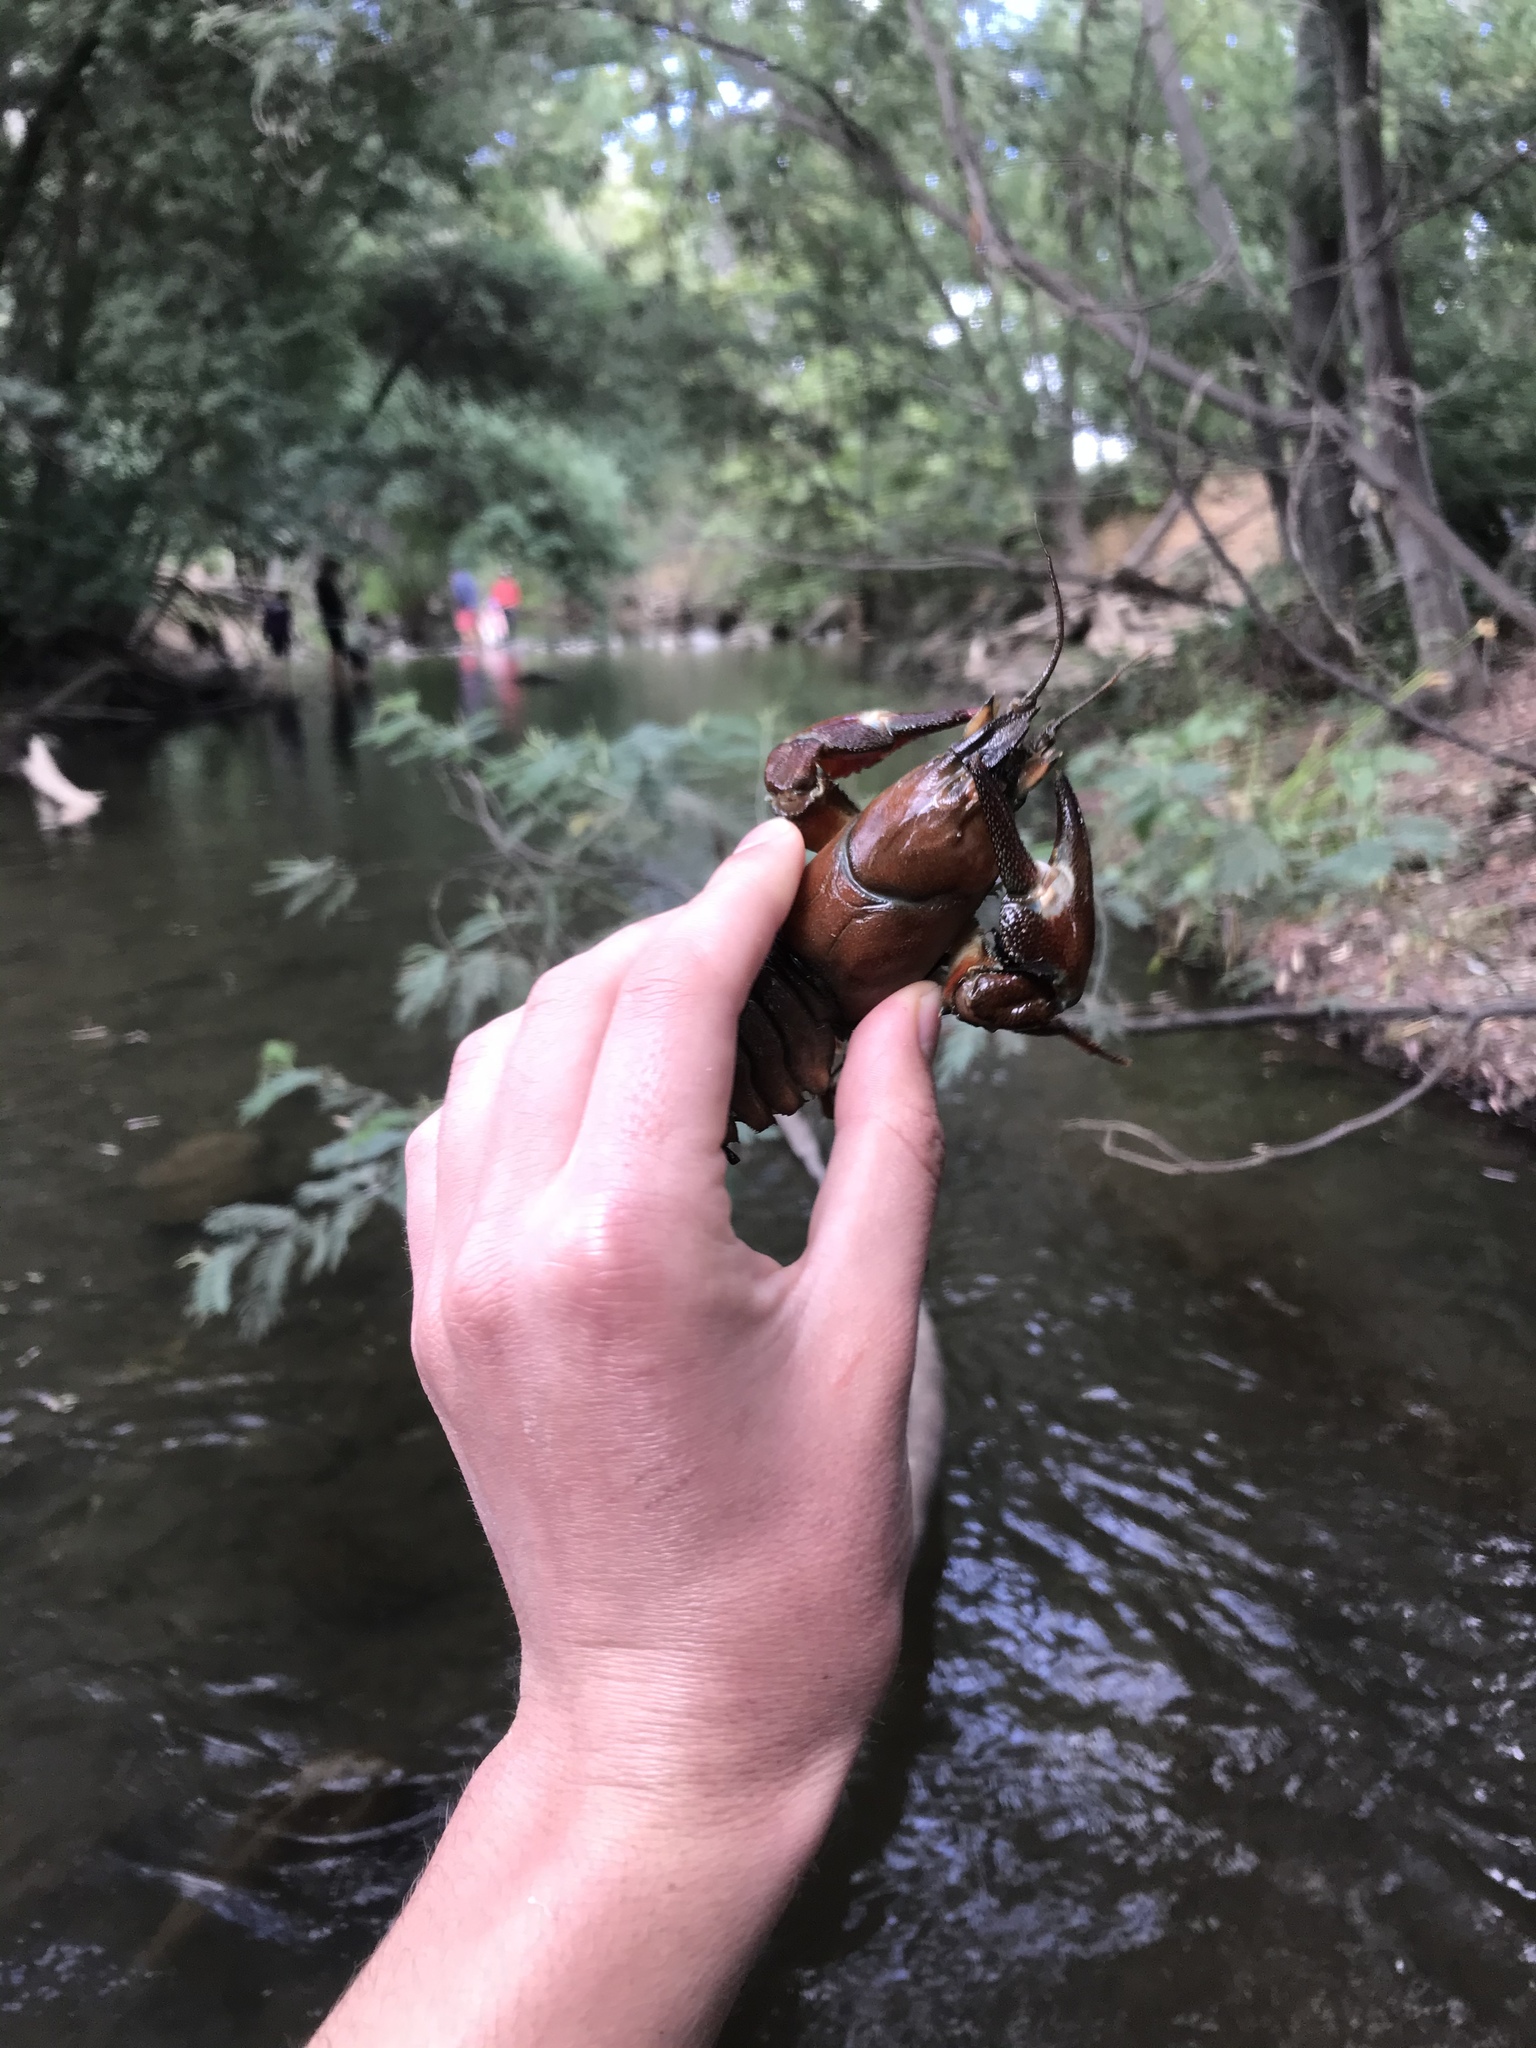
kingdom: Animalia
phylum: Arthropoda
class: Malacostraca
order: Decapoda
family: Astacidae
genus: Pacifastacus
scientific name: Pacifastacus leniusculus
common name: Signal crayfish
